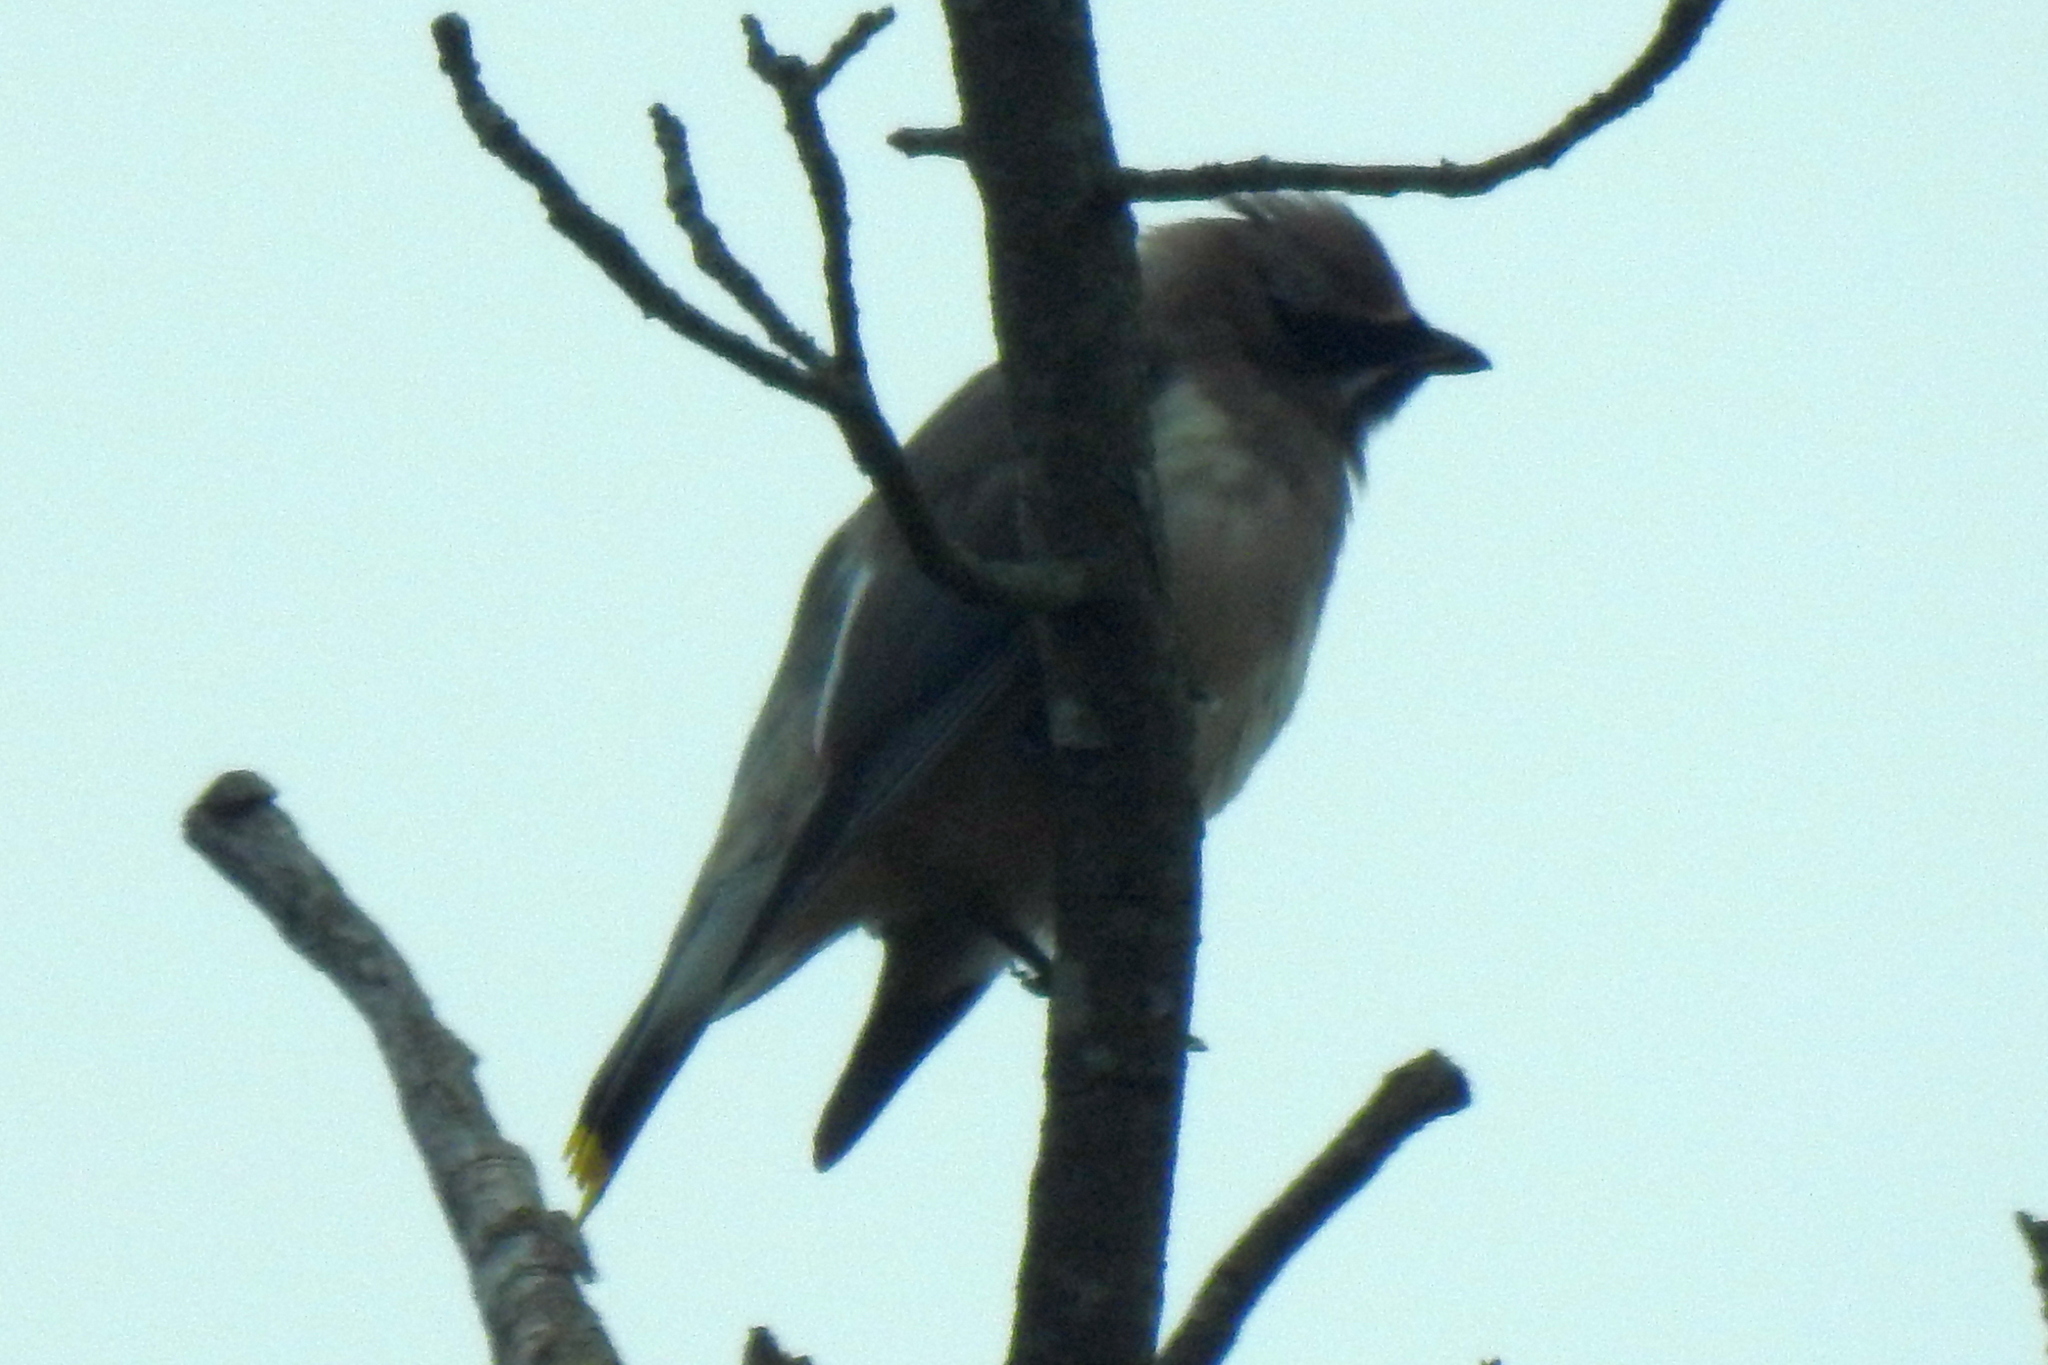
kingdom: Animalia
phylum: Chordata
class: Aves
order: Passeriformes
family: Bombycillidae
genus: Bombycilla
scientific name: Bombycilla cedrorum
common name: Cedar waxwing
